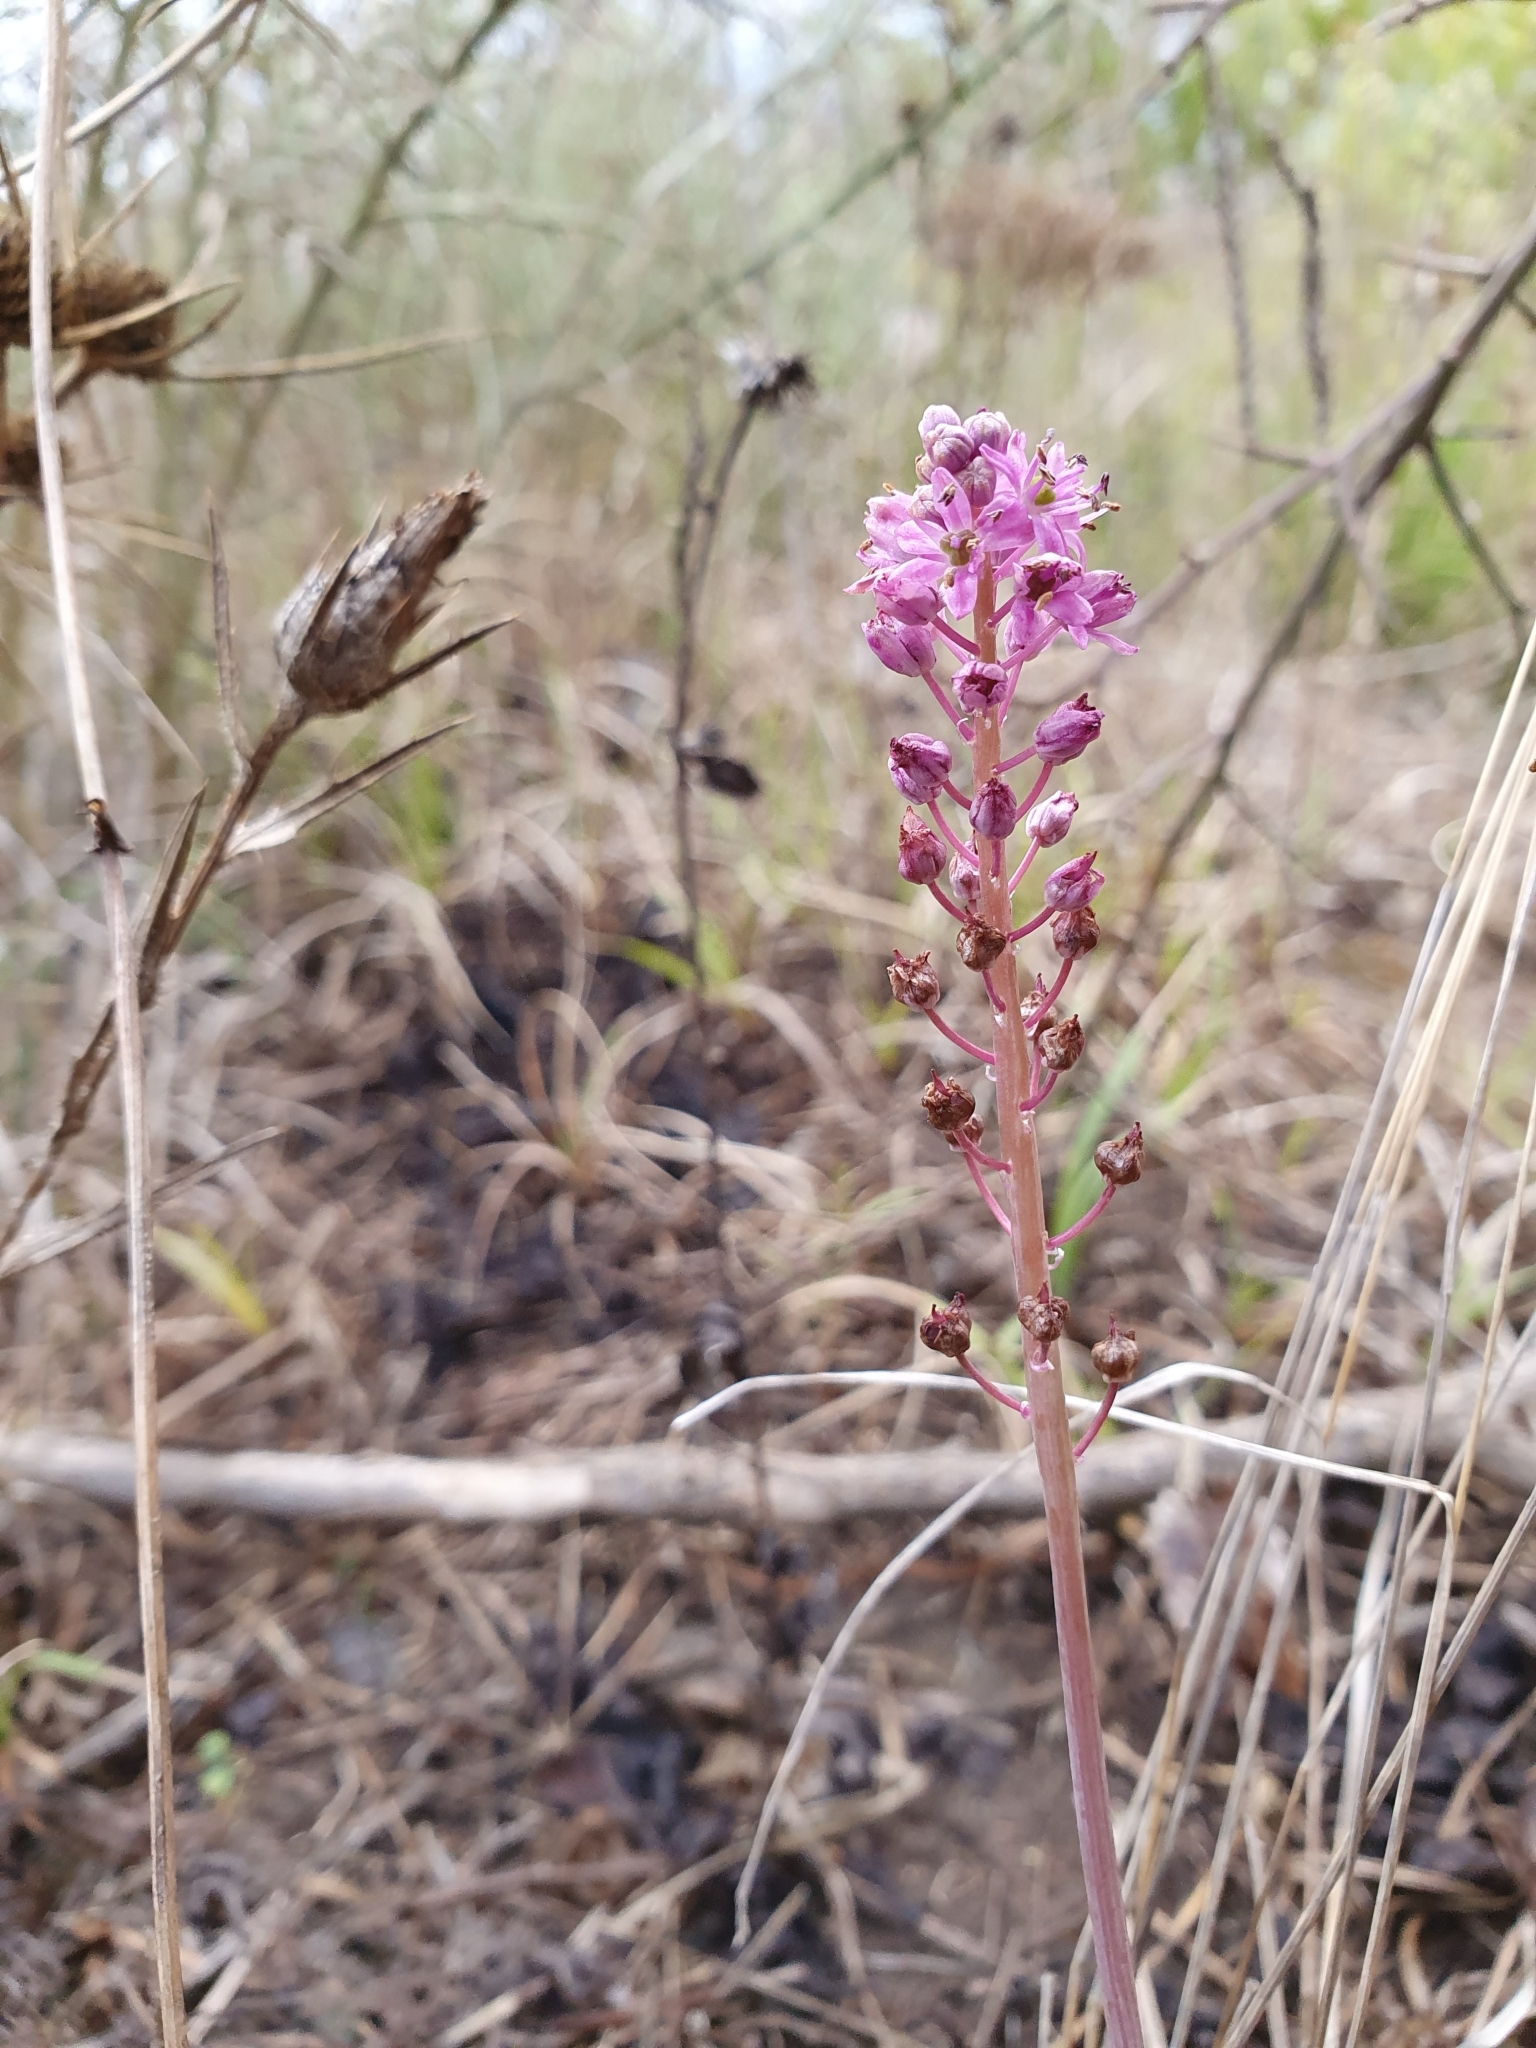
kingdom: Plantae
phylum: Tracheophyta
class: Liliopsida
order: Asparagales
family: Asparagaceae
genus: Barnardia
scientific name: Barnardia numidica
